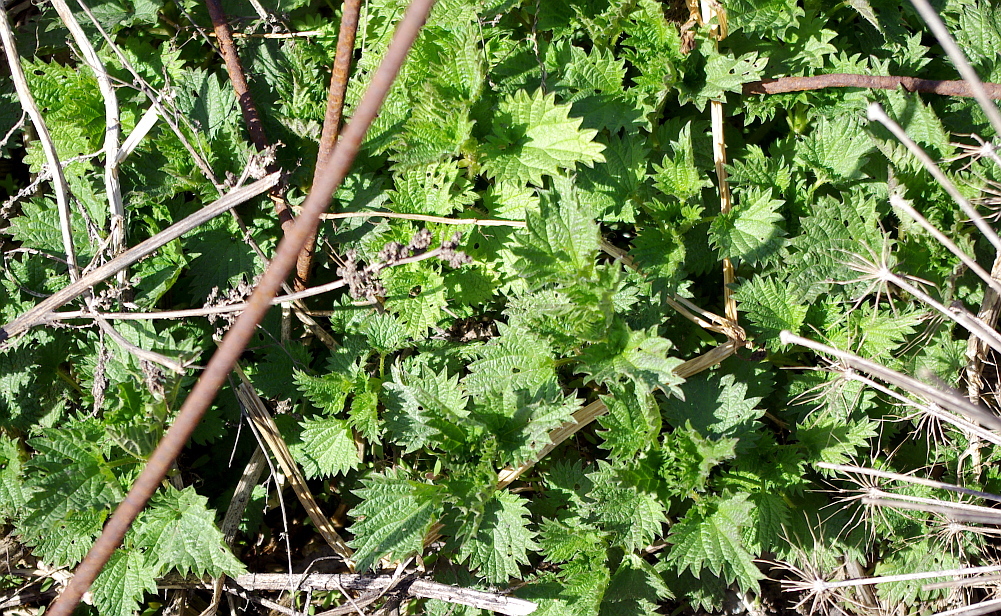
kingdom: Plantae
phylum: Tracheophyta
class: Magnoliopsida
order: Rosales
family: Urticaceae
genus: Urtica
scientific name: Urtica dioica
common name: Common nettle
